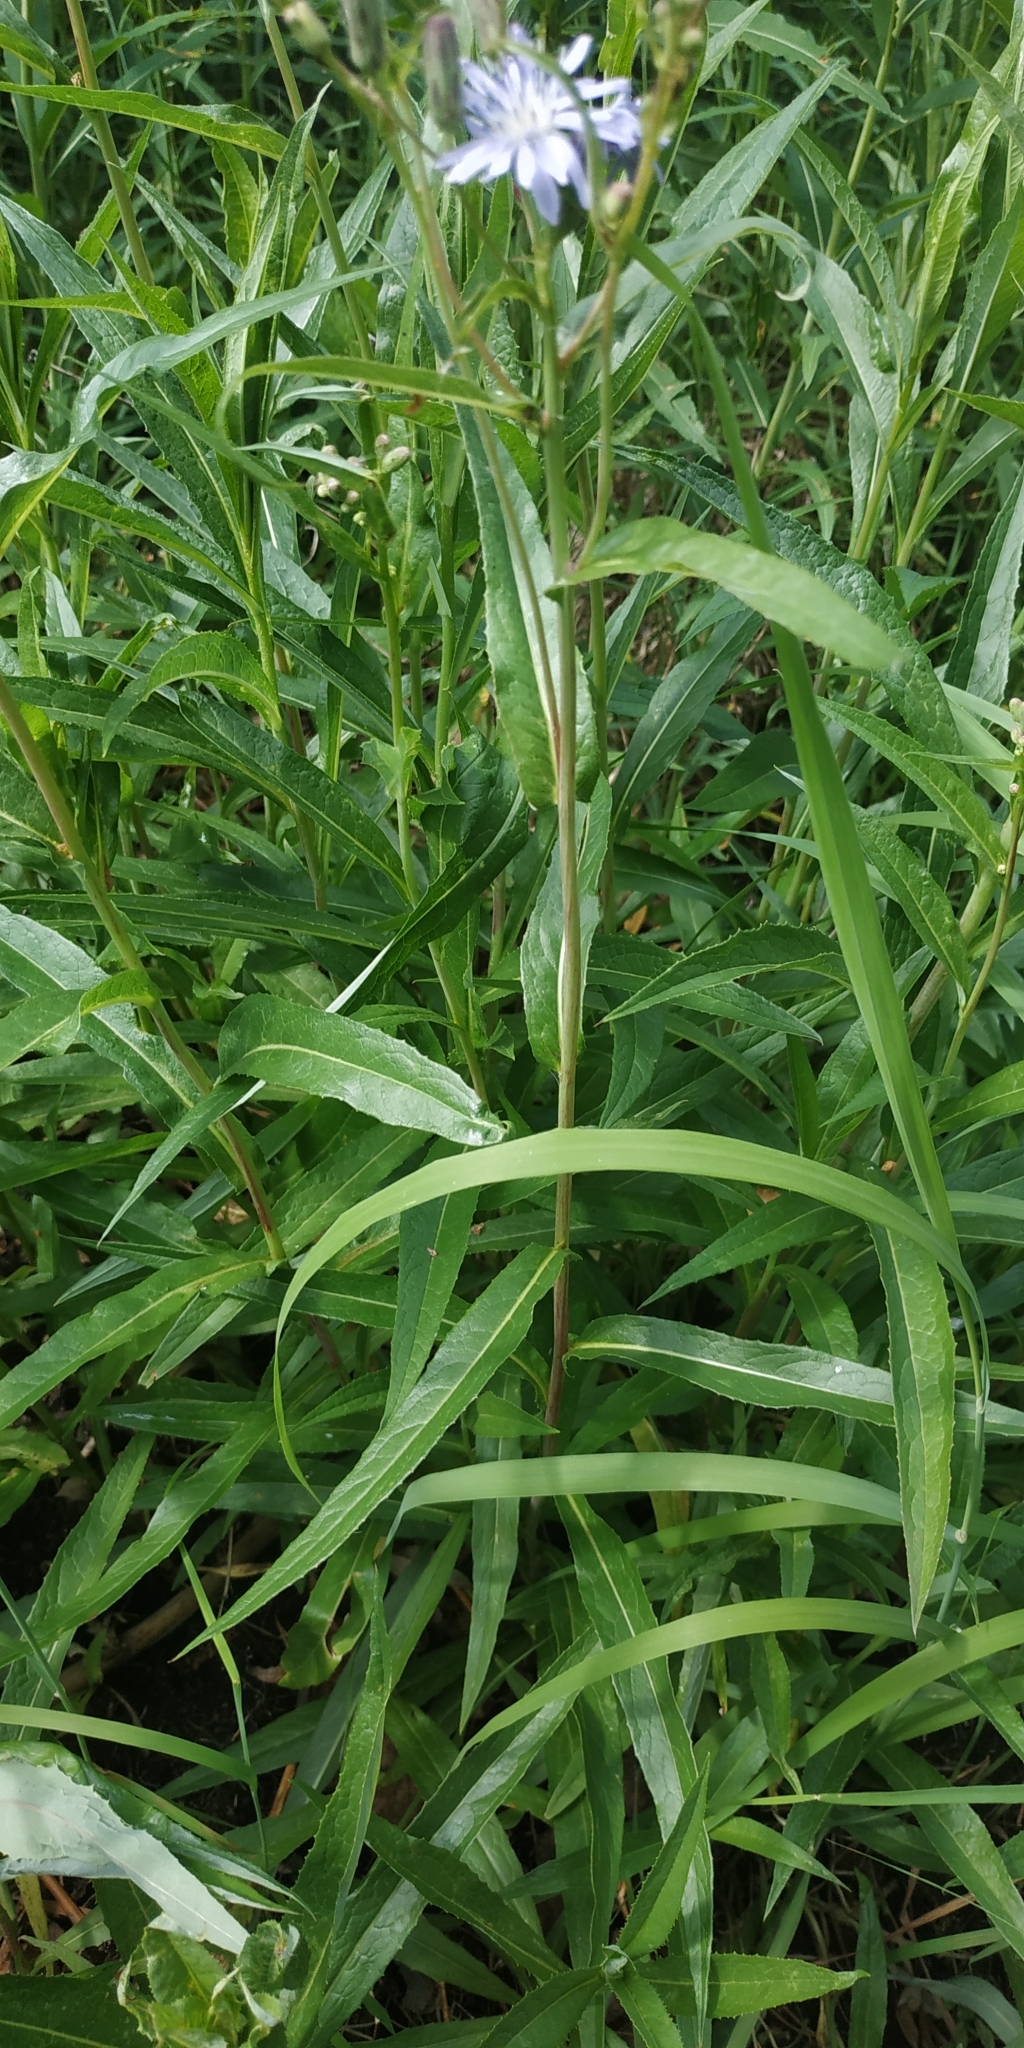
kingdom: Plantae
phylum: Tracheophyta
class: Magnoliopsida
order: Asterales
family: Asteraceae
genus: Lactuca
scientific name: Lactuca sibirica
